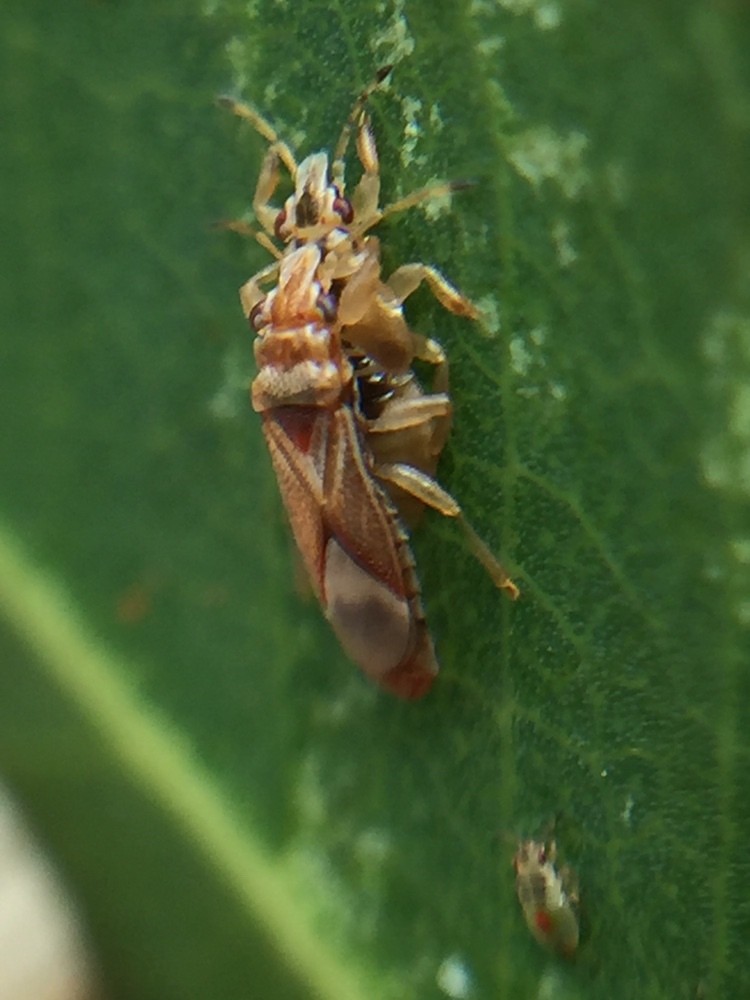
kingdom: Animalia
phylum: Arthropoda
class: Insecta
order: Hemiptera
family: Thaumastocoridae
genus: Thaumastocoris
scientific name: Thaumastocoris peregrinus
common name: Bronze bug
